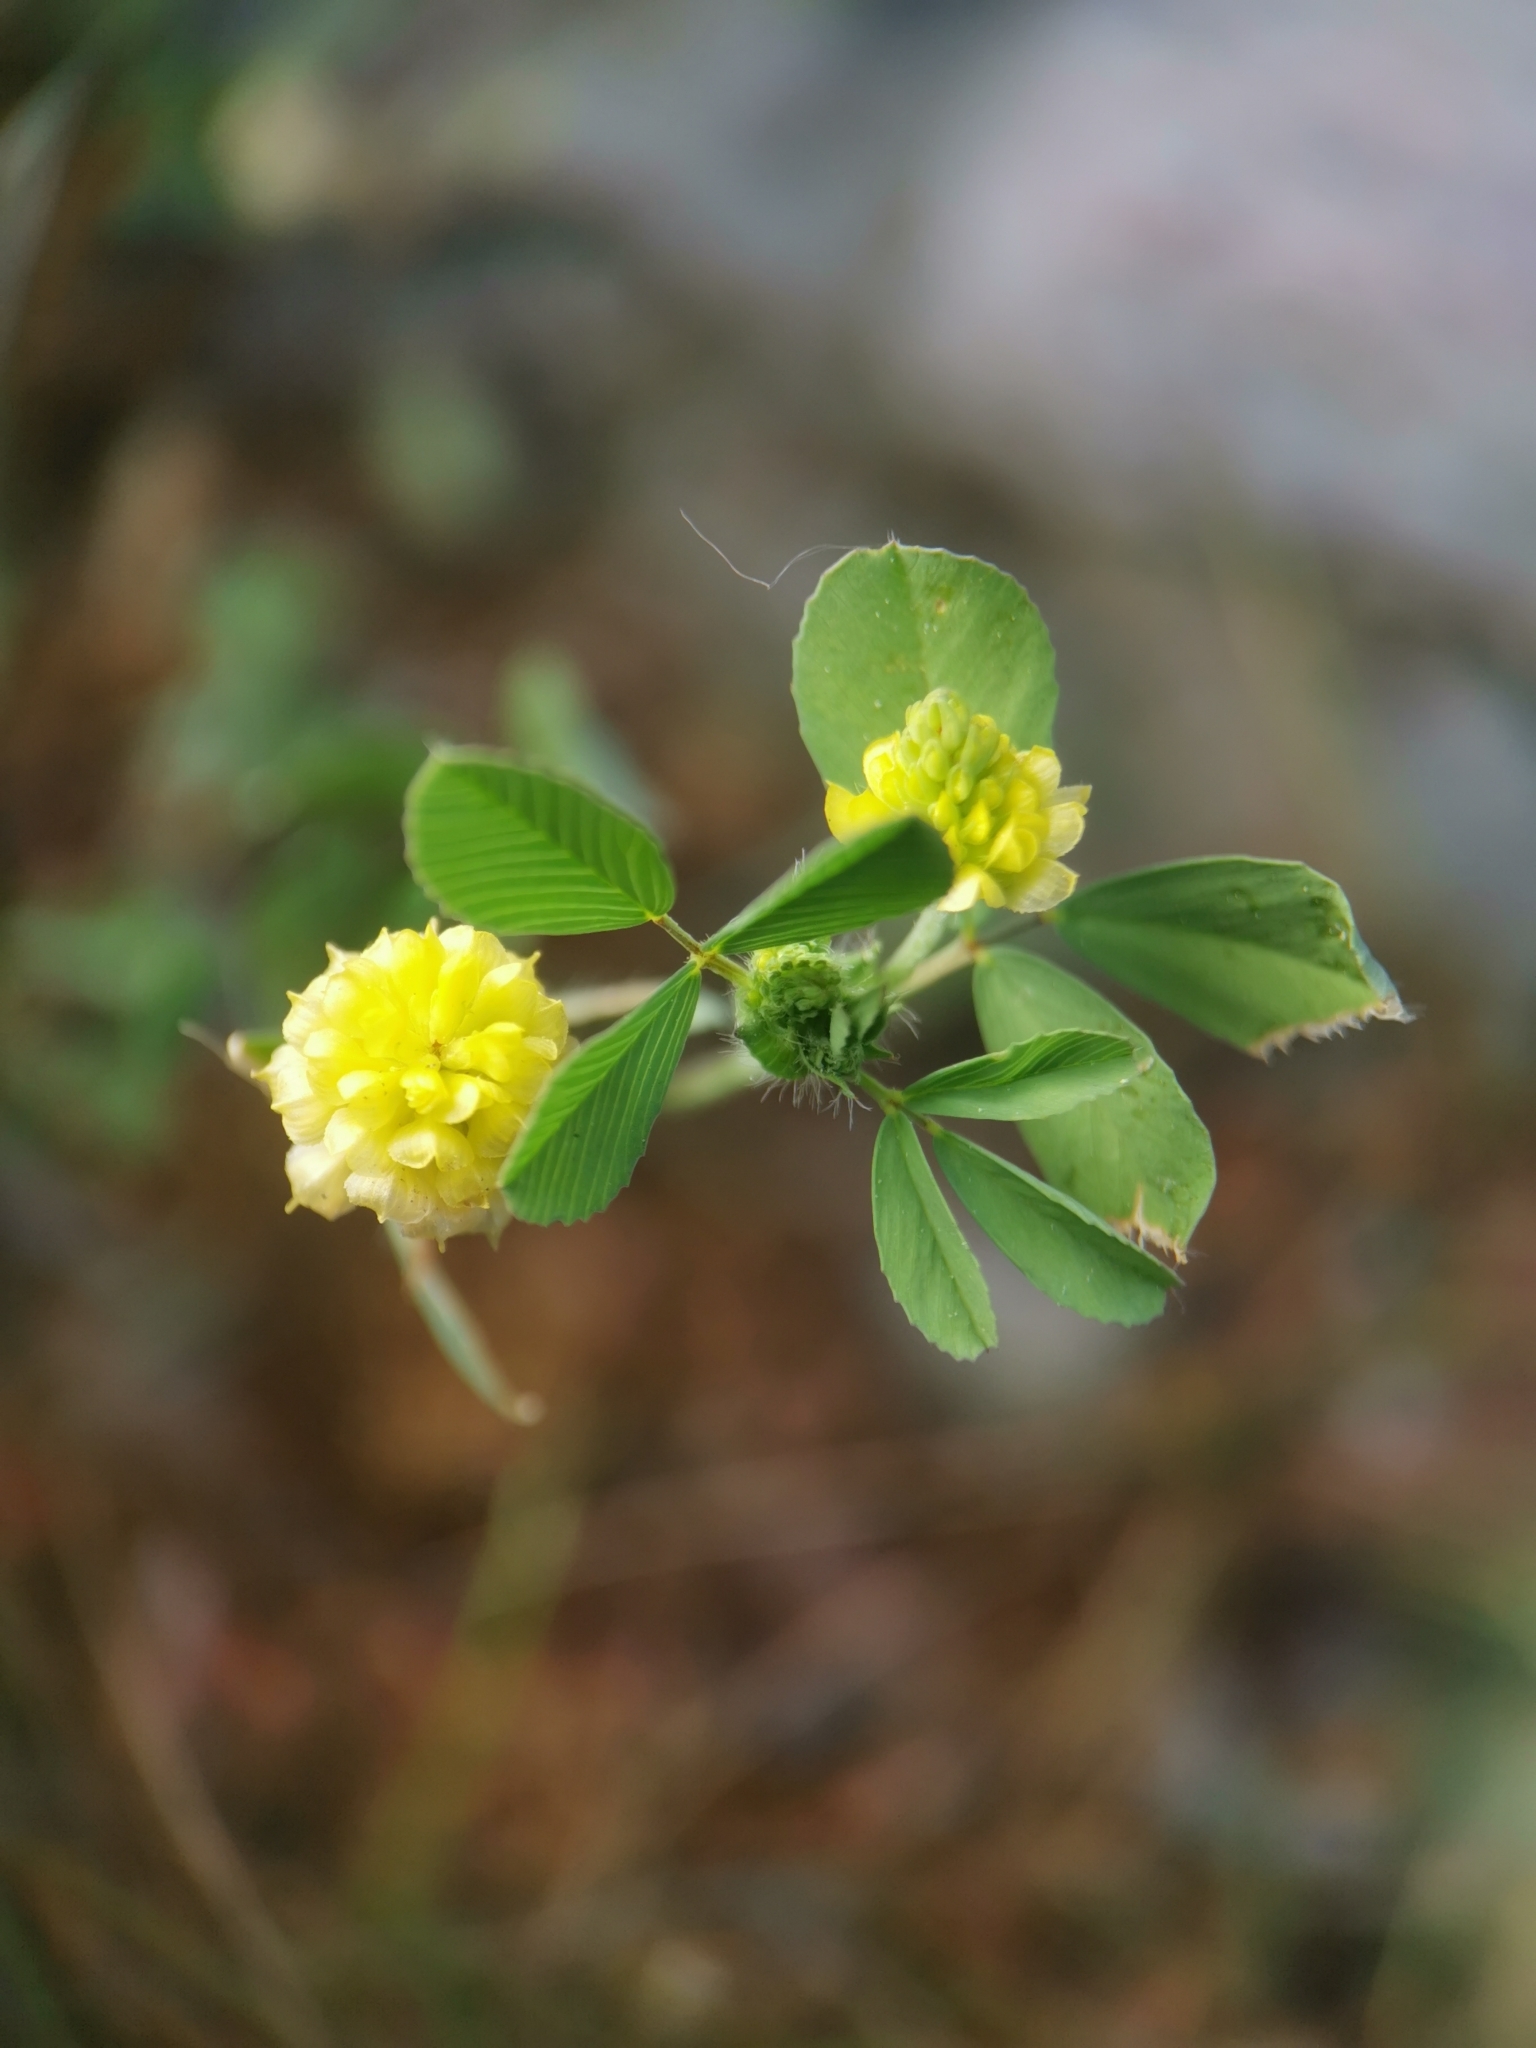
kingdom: Plantae
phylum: Tracheophyta
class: Magnoliopsida
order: Fabales
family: Fabaceae
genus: Trifolium
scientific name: Trifolium campestre
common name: Field clover
